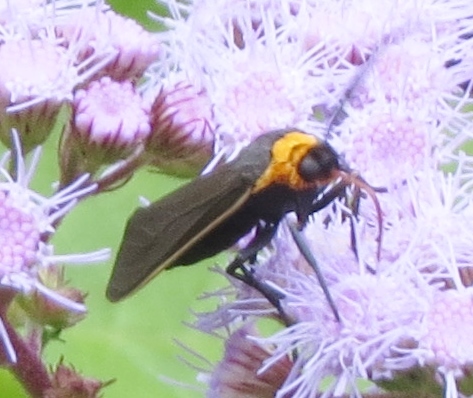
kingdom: Animalia
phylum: Arthropoda
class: Insecta
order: Lepidoptera
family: Erebidae
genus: Cisseps
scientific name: Cisseps fulvicollis
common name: Yellow-collared scape moth
